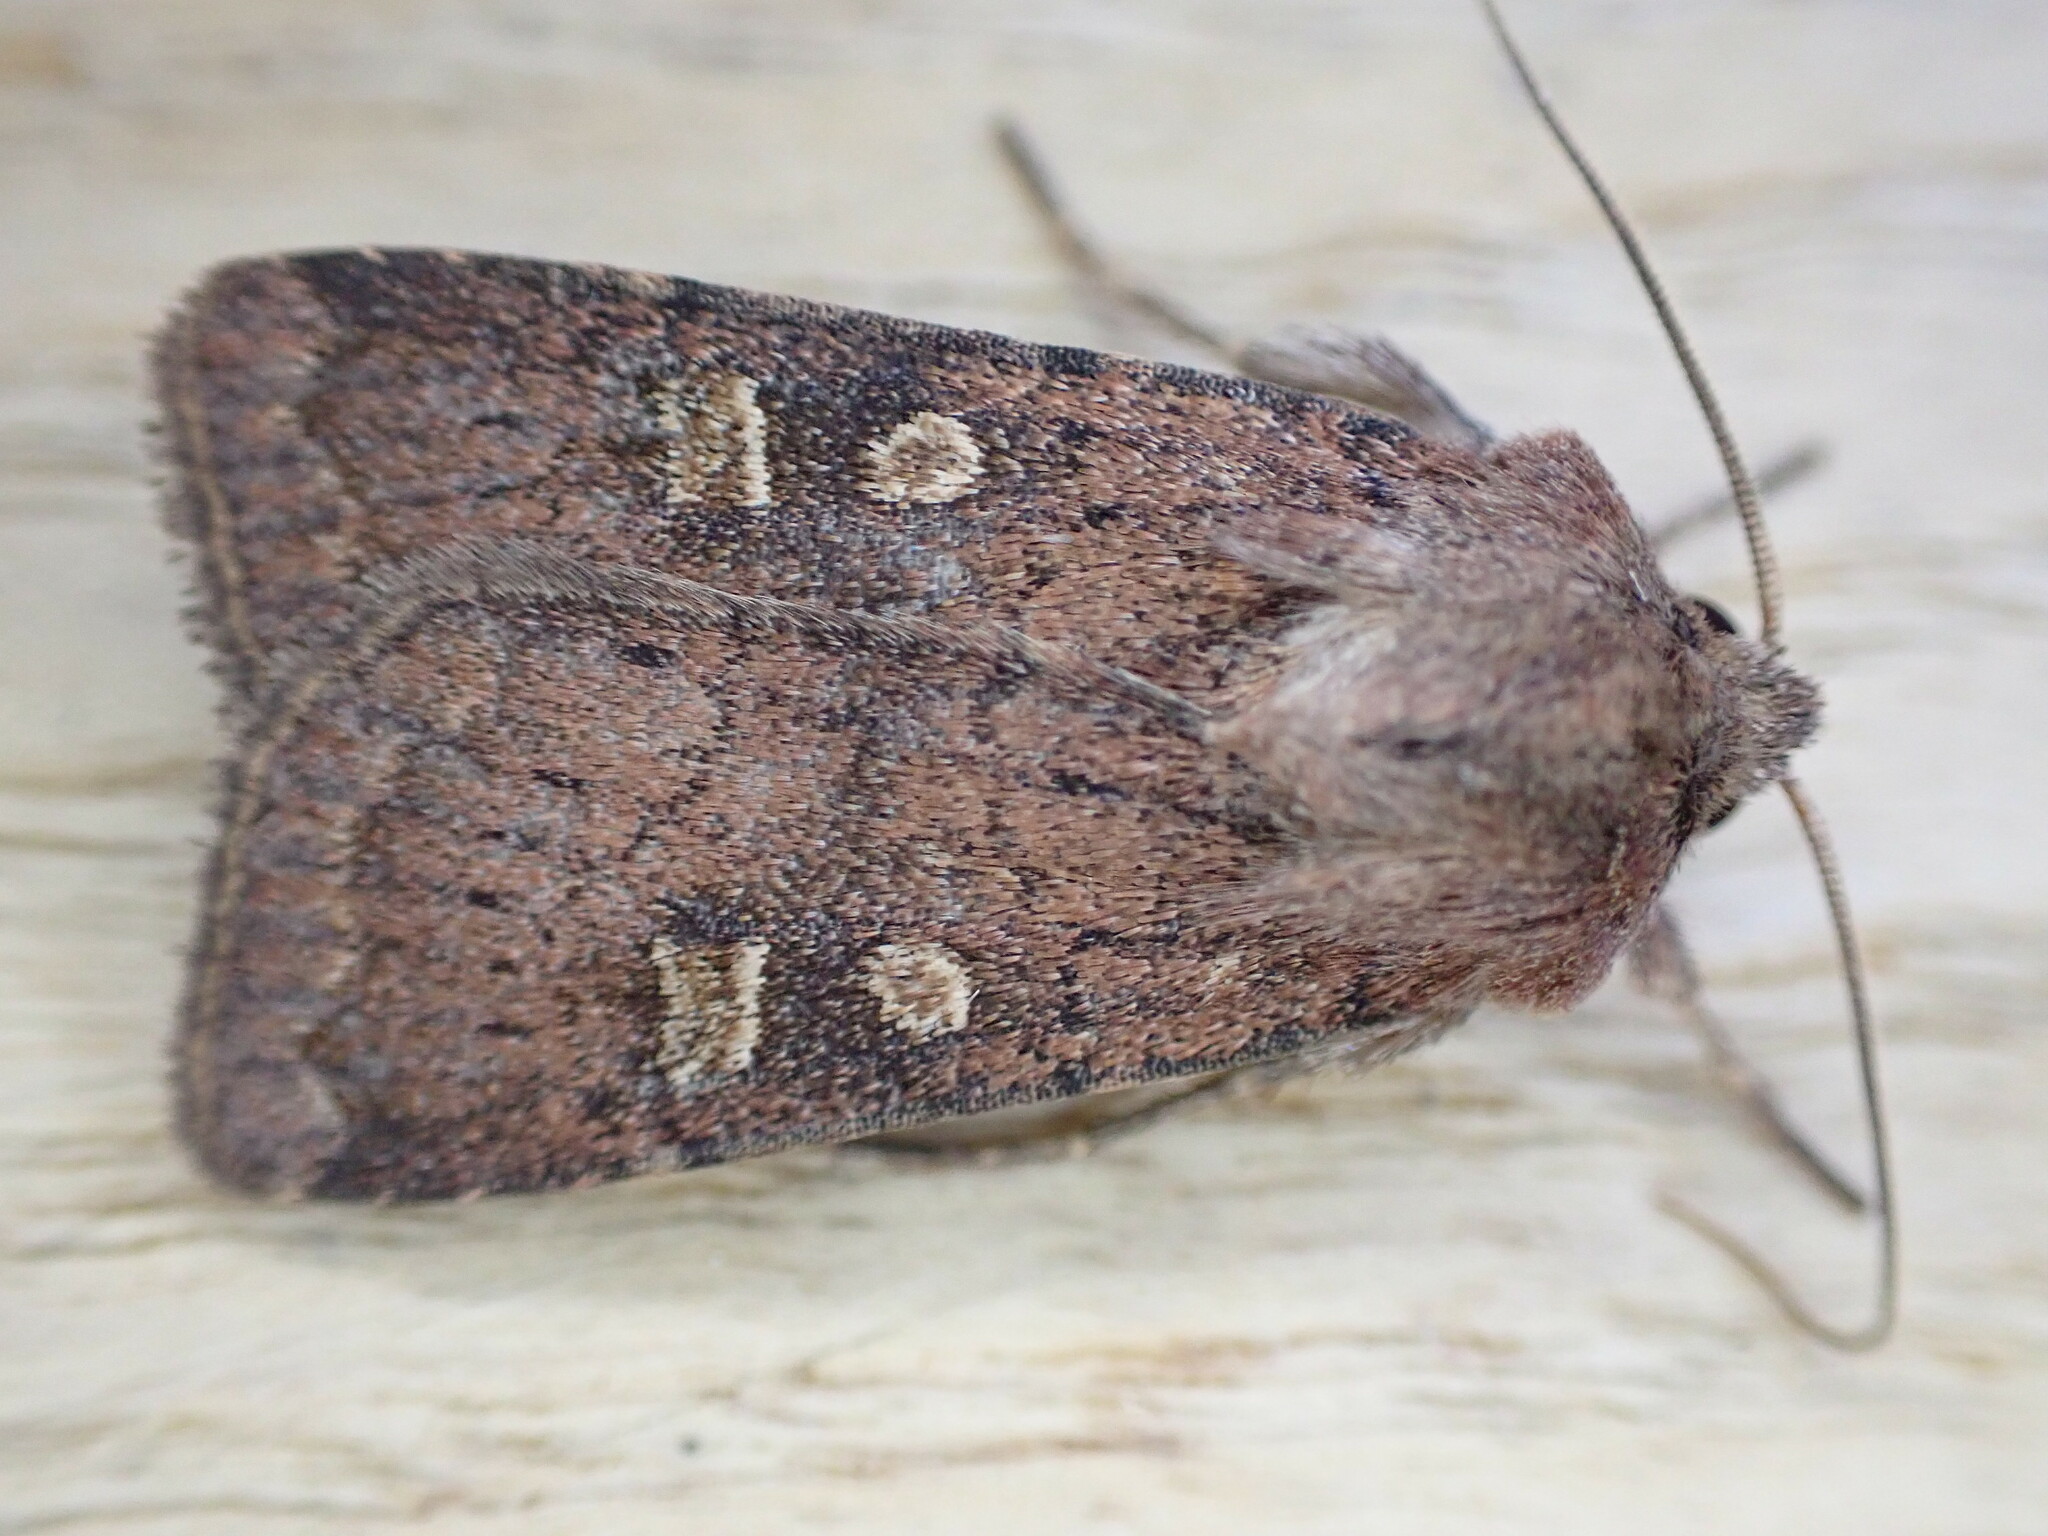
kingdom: Animalia
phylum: Arthropoda
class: Insecta
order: Lepidoptera
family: Noctuidae
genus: Xestia
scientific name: Xestia xanthographa
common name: Square-spot rustic
